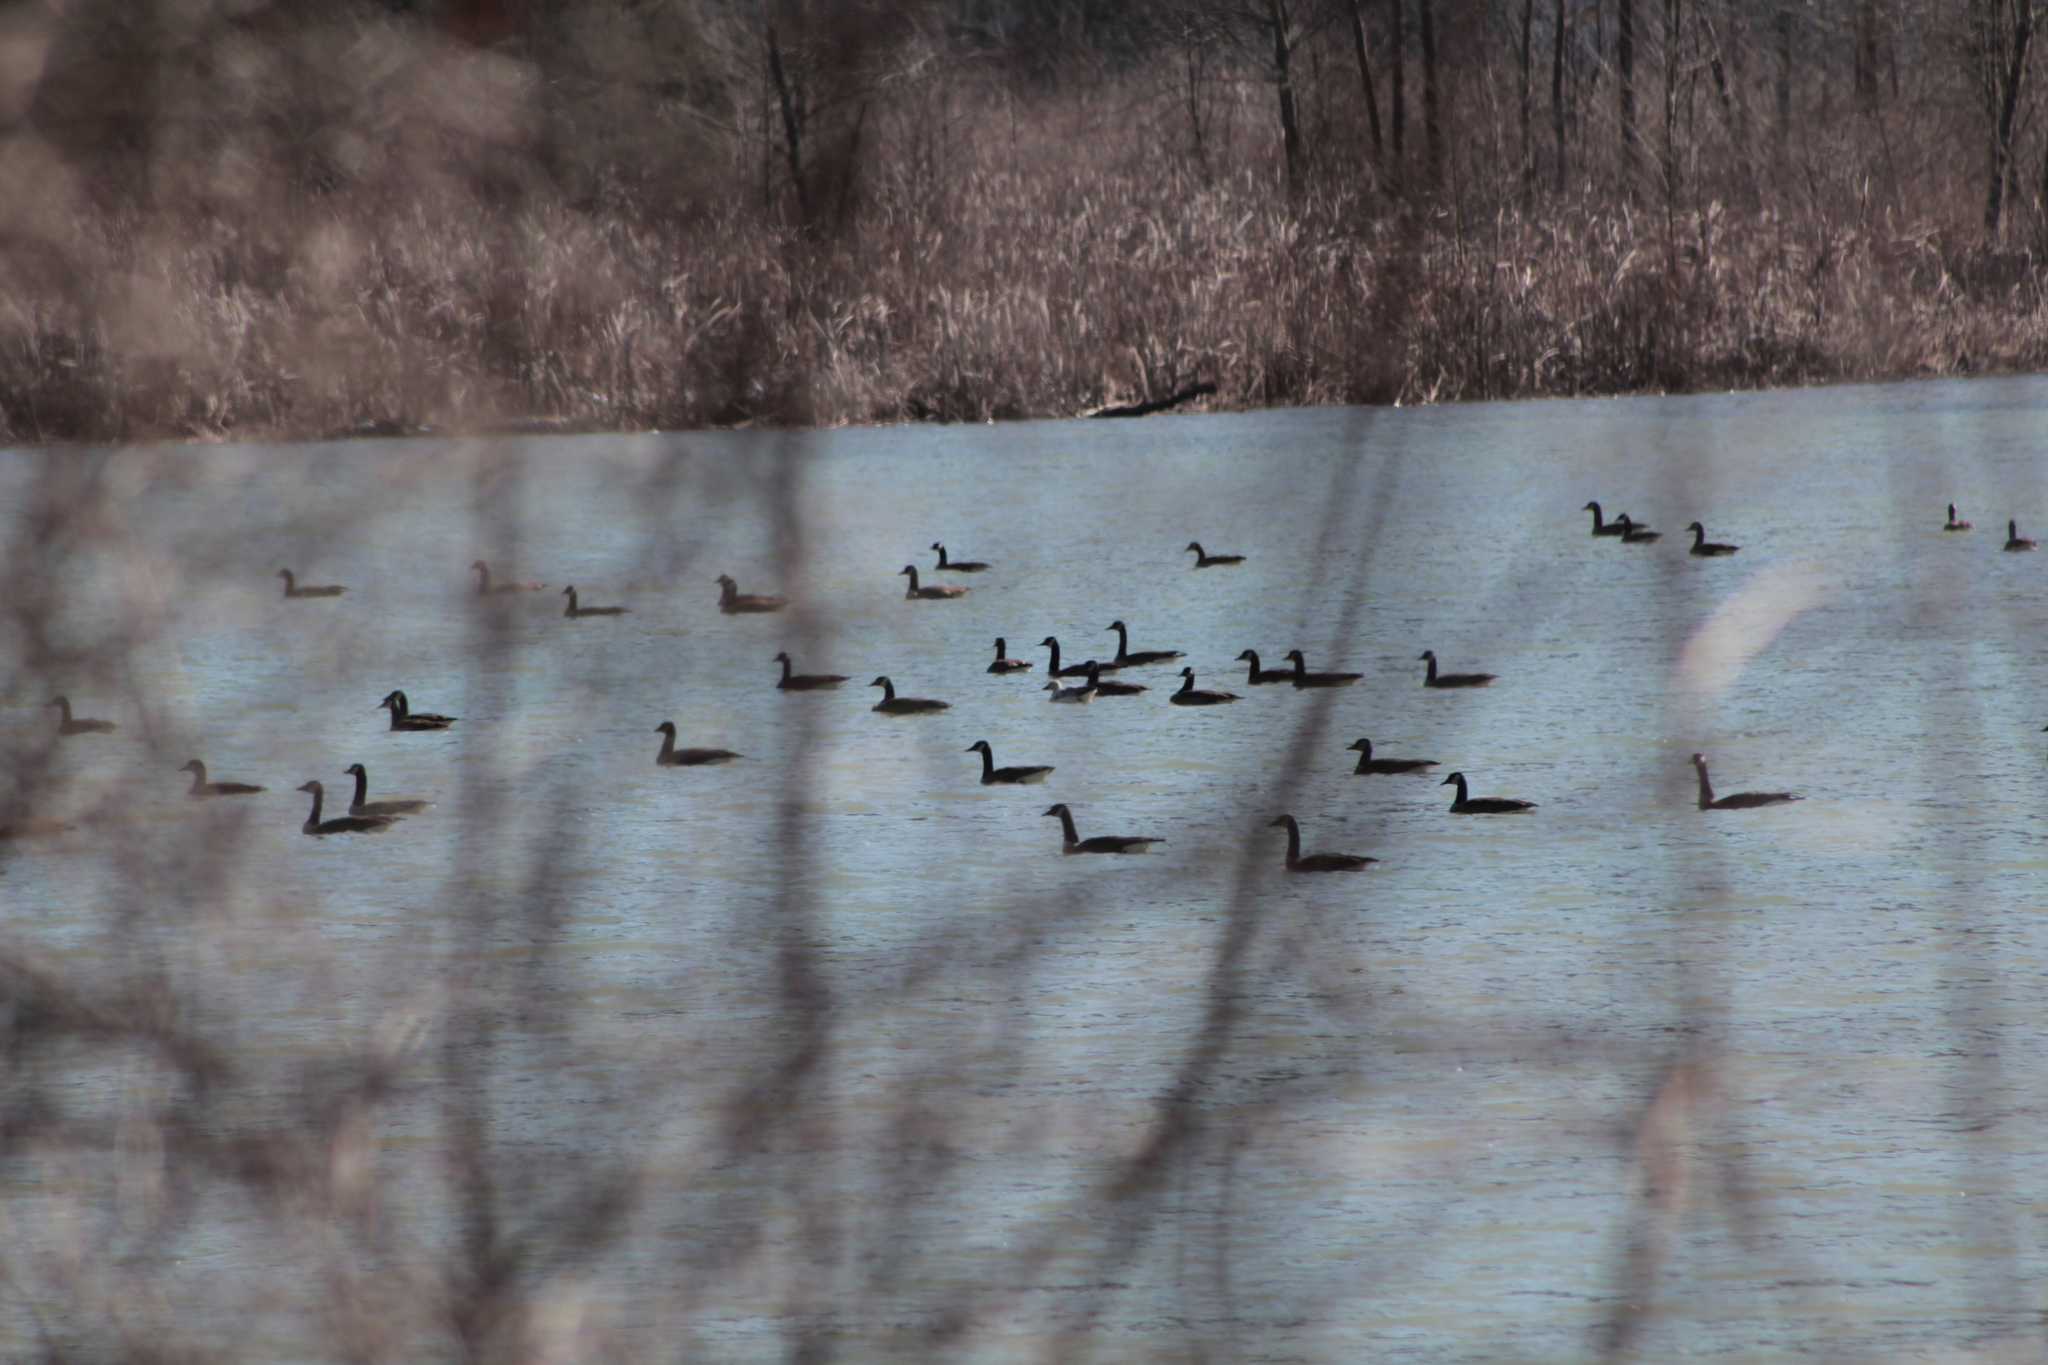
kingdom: Animalia
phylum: Chordata
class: Aves
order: Anseriformes
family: Anatidae
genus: Branta
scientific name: Branta canadensis
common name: Canada goose
